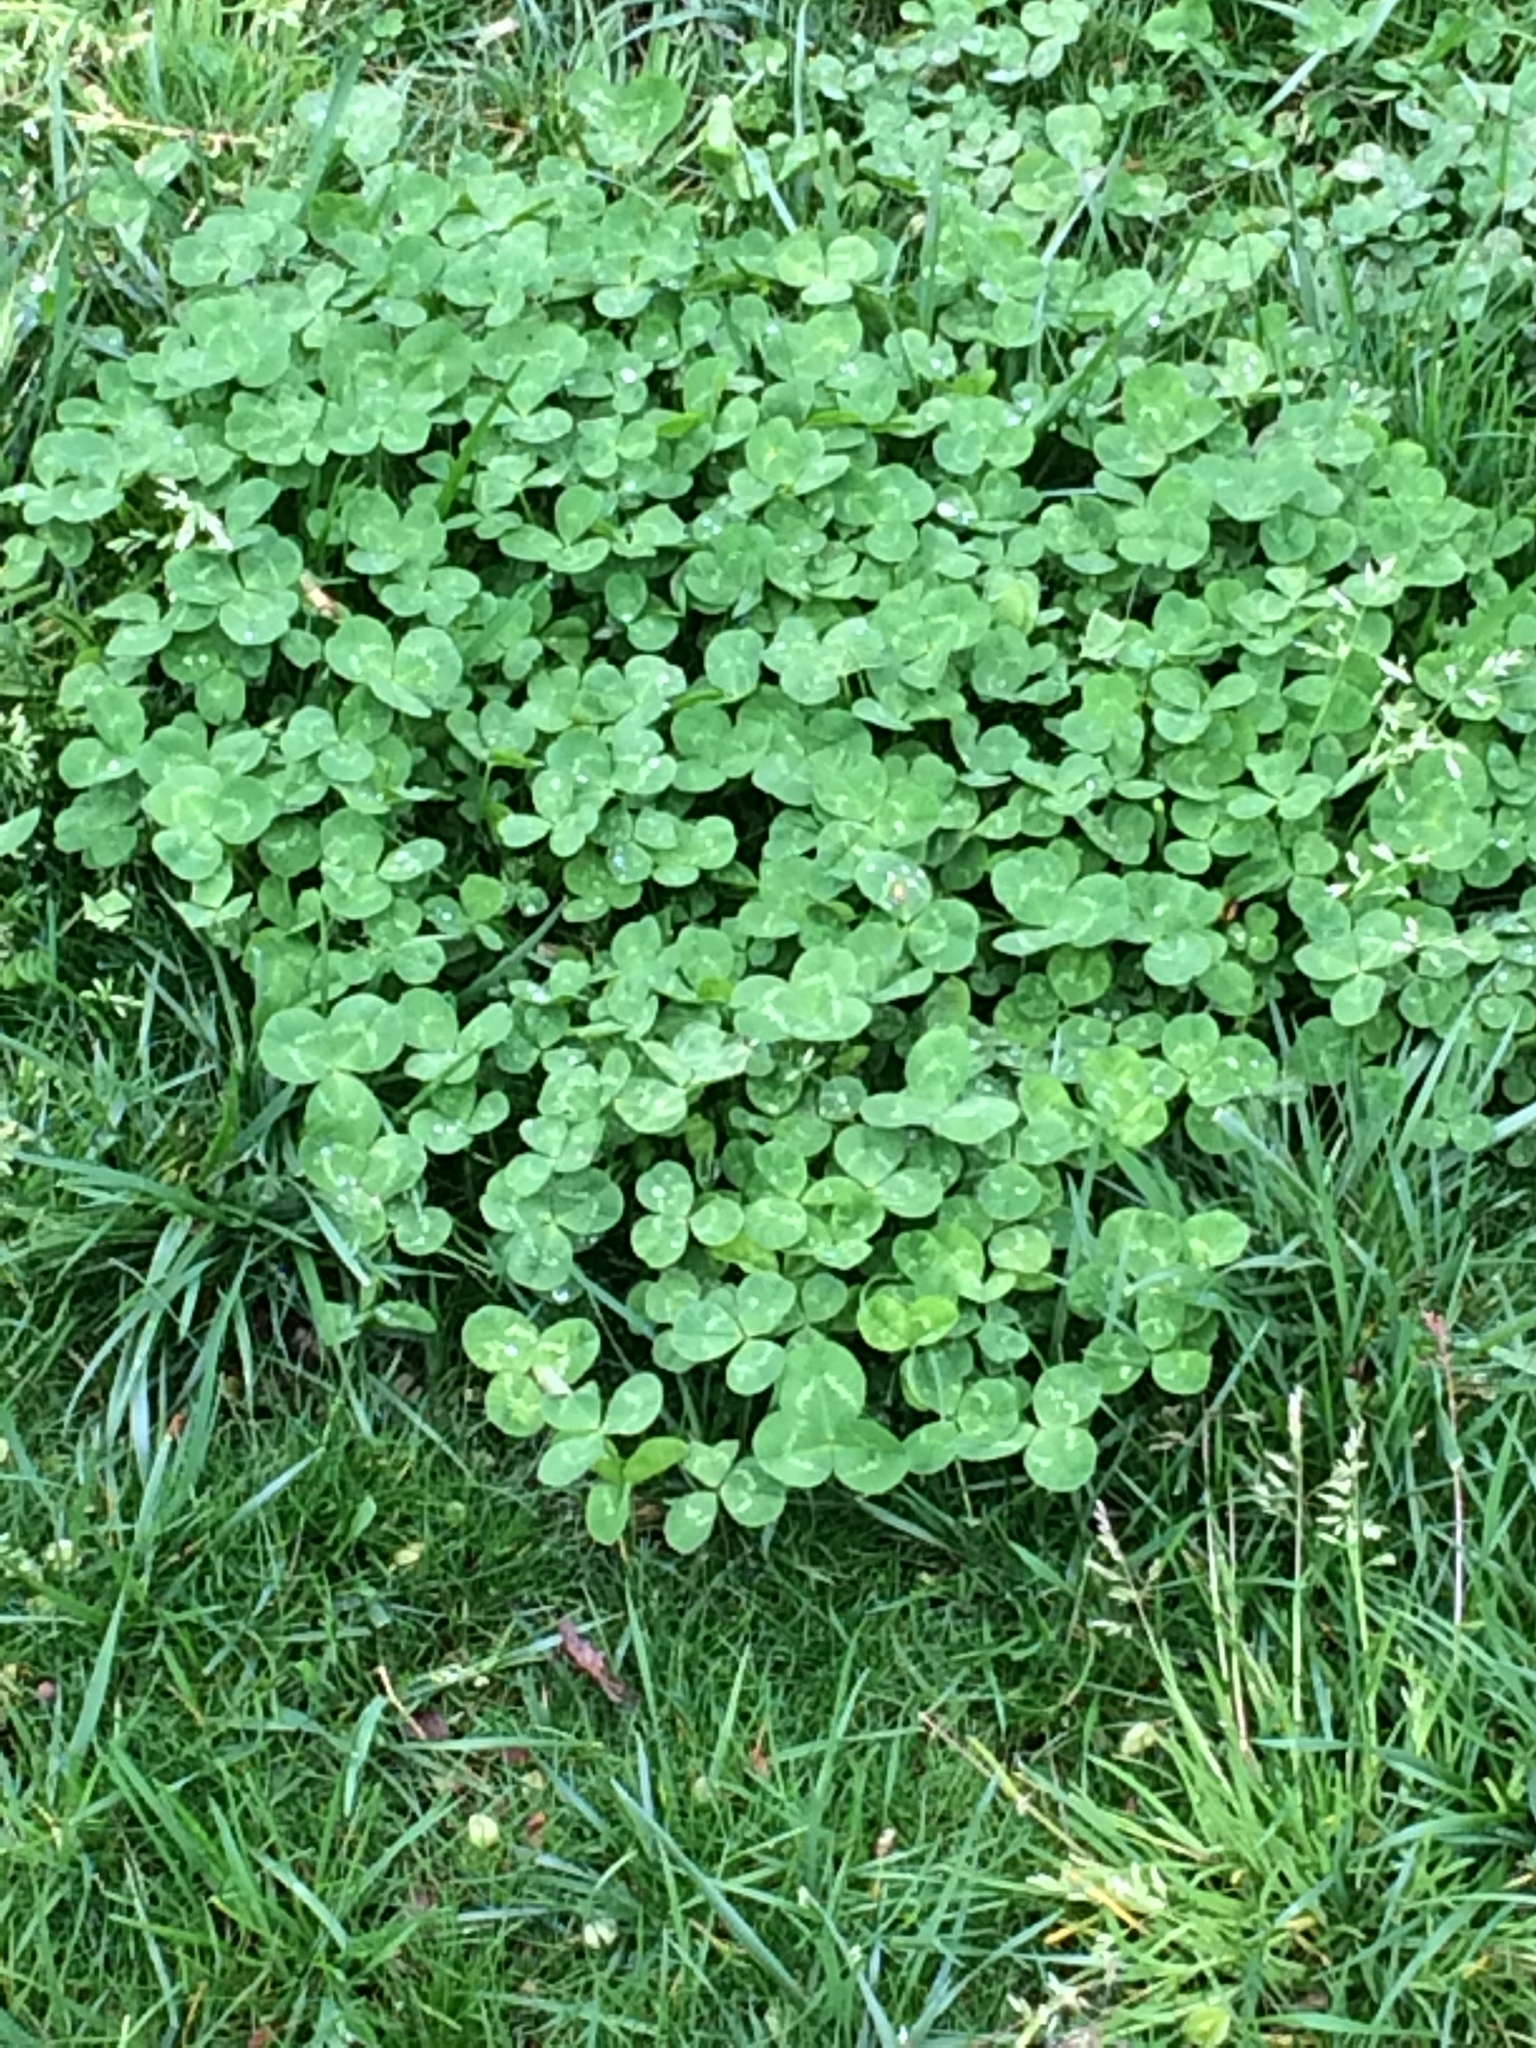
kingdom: Plantae
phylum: Tracheophyta
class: Magnoliopsida
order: Fabales
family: Fabaceae
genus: Trifolium
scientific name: Trifolium repens
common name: White clover
